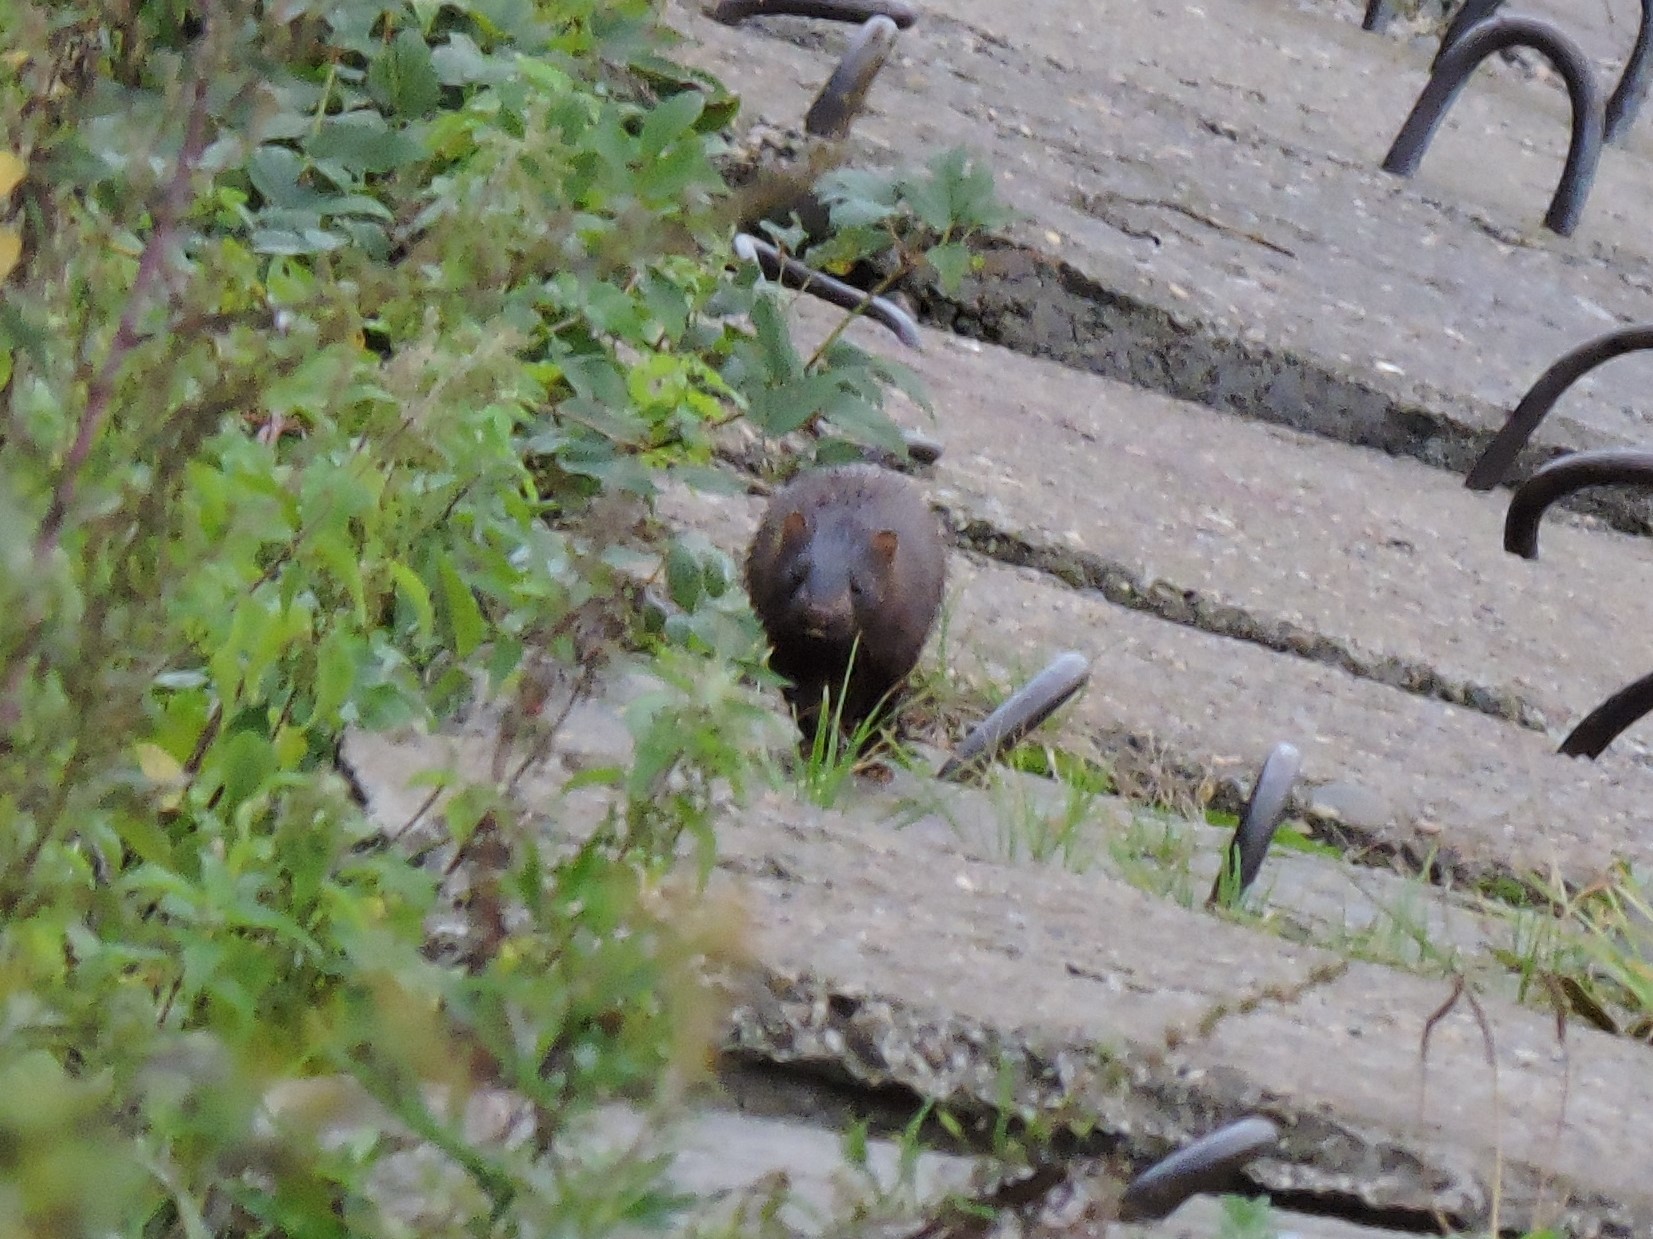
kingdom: Animalia
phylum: Chordata
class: Mammalia
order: Carnivora
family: Mustelidae
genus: Mustela
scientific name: Mustela
